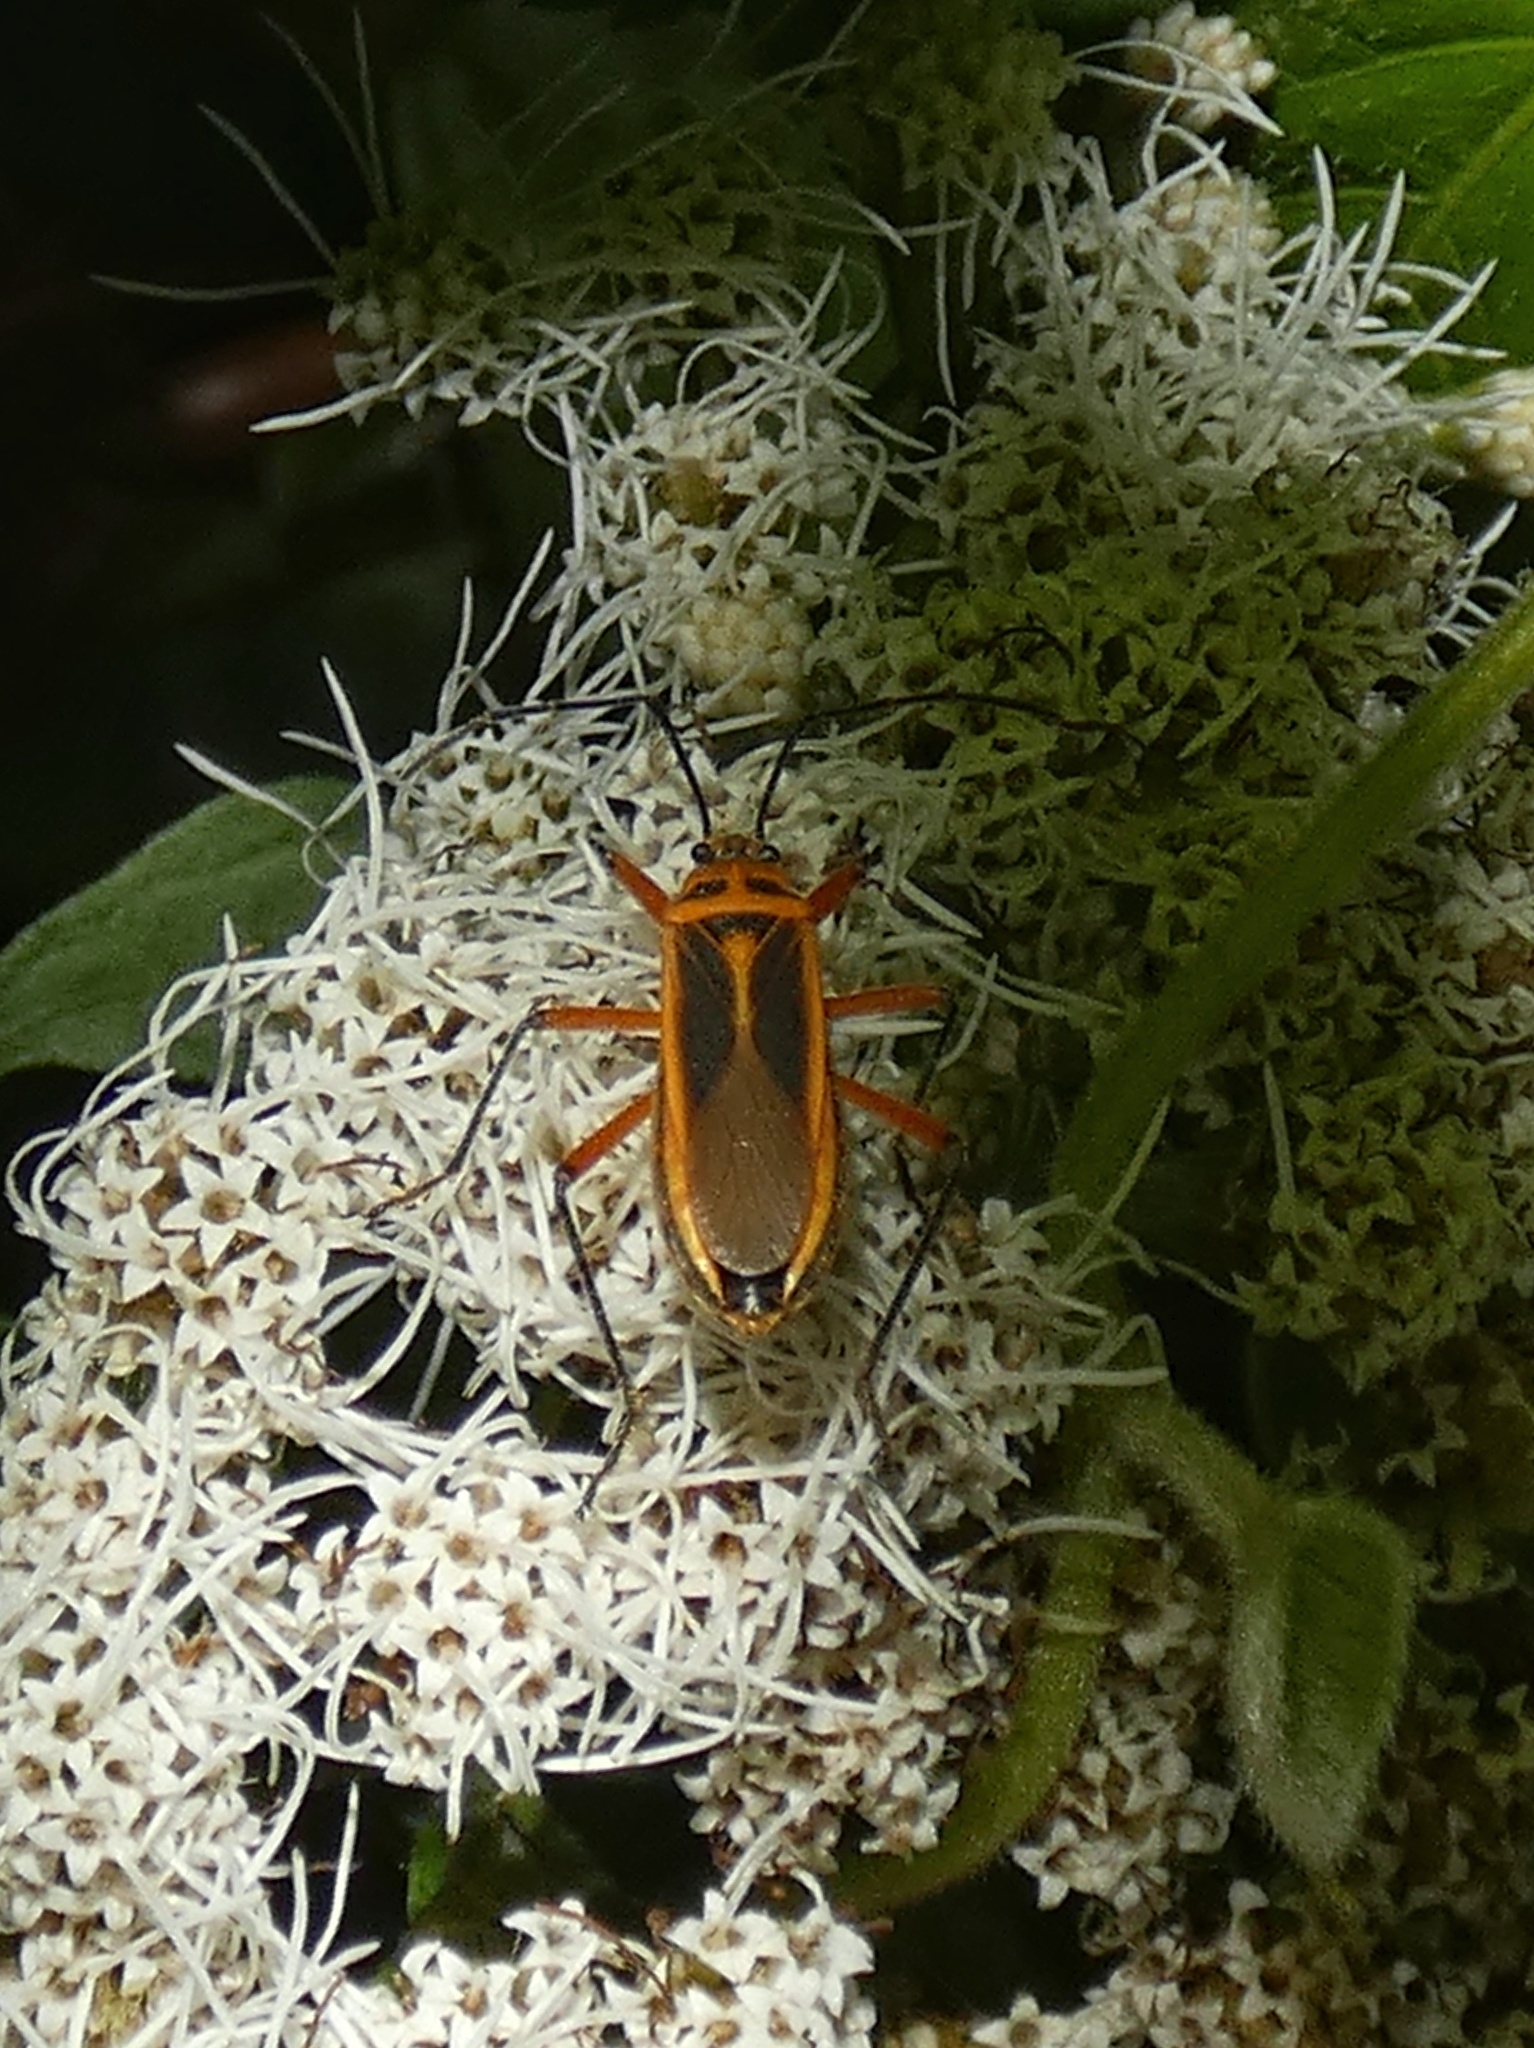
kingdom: Animalia
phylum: Arthropoda
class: Insecta
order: Hemiptera
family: Largidae
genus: Stenomacra
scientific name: Stenomacra marginella
